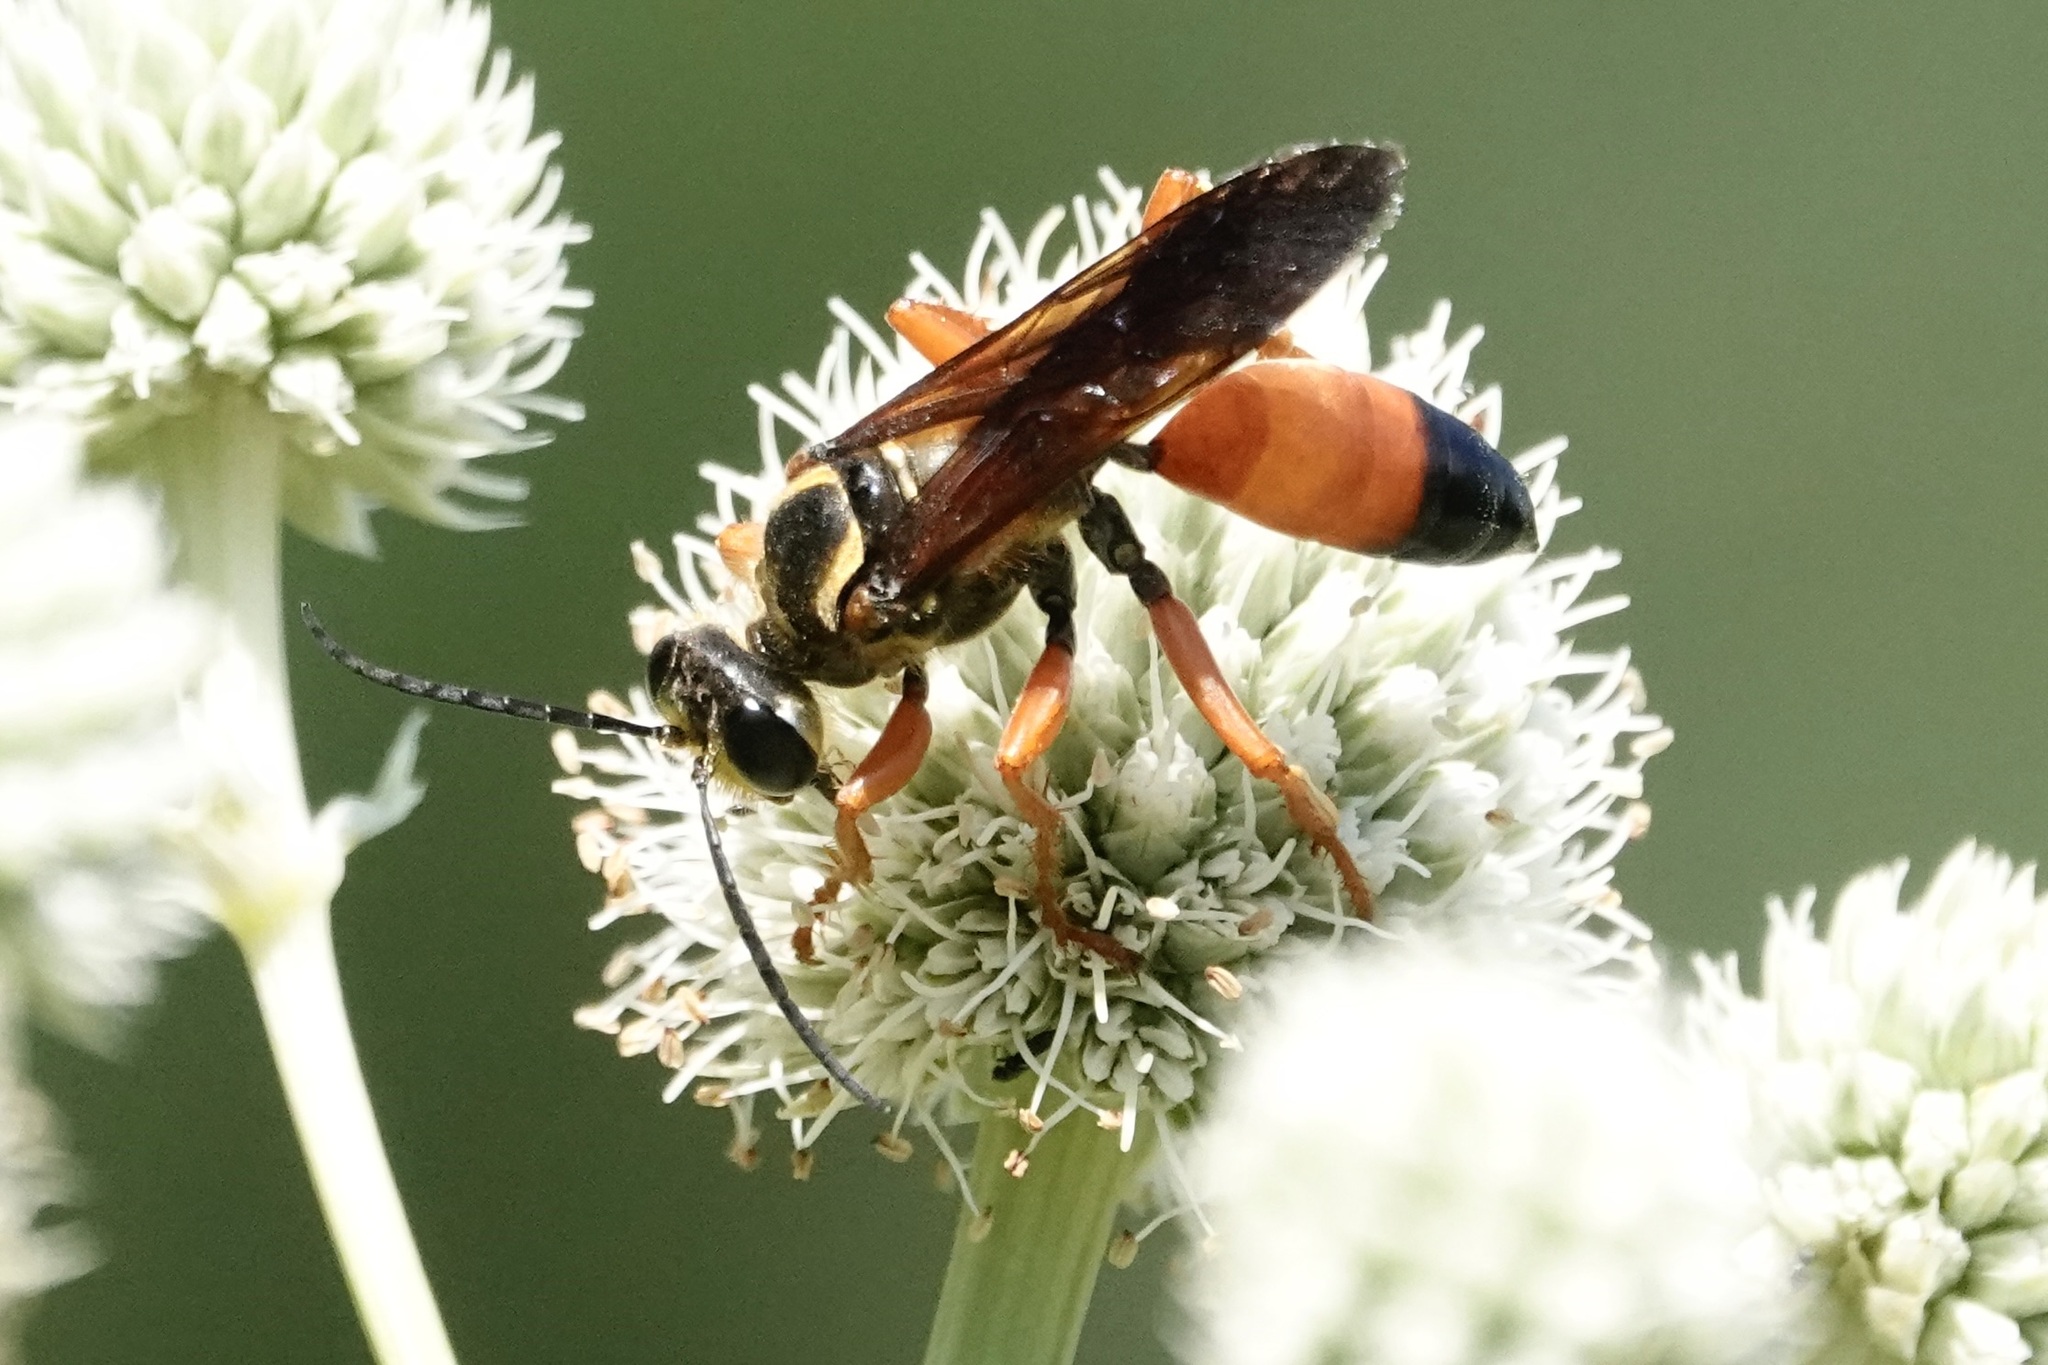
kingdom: Animalia
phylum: Arthropoda
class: Insecta
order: Hymenoptera
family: Sphecidae
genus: Sphex
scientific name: Sphex ichneumoneus
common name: Great golden digger wasp
